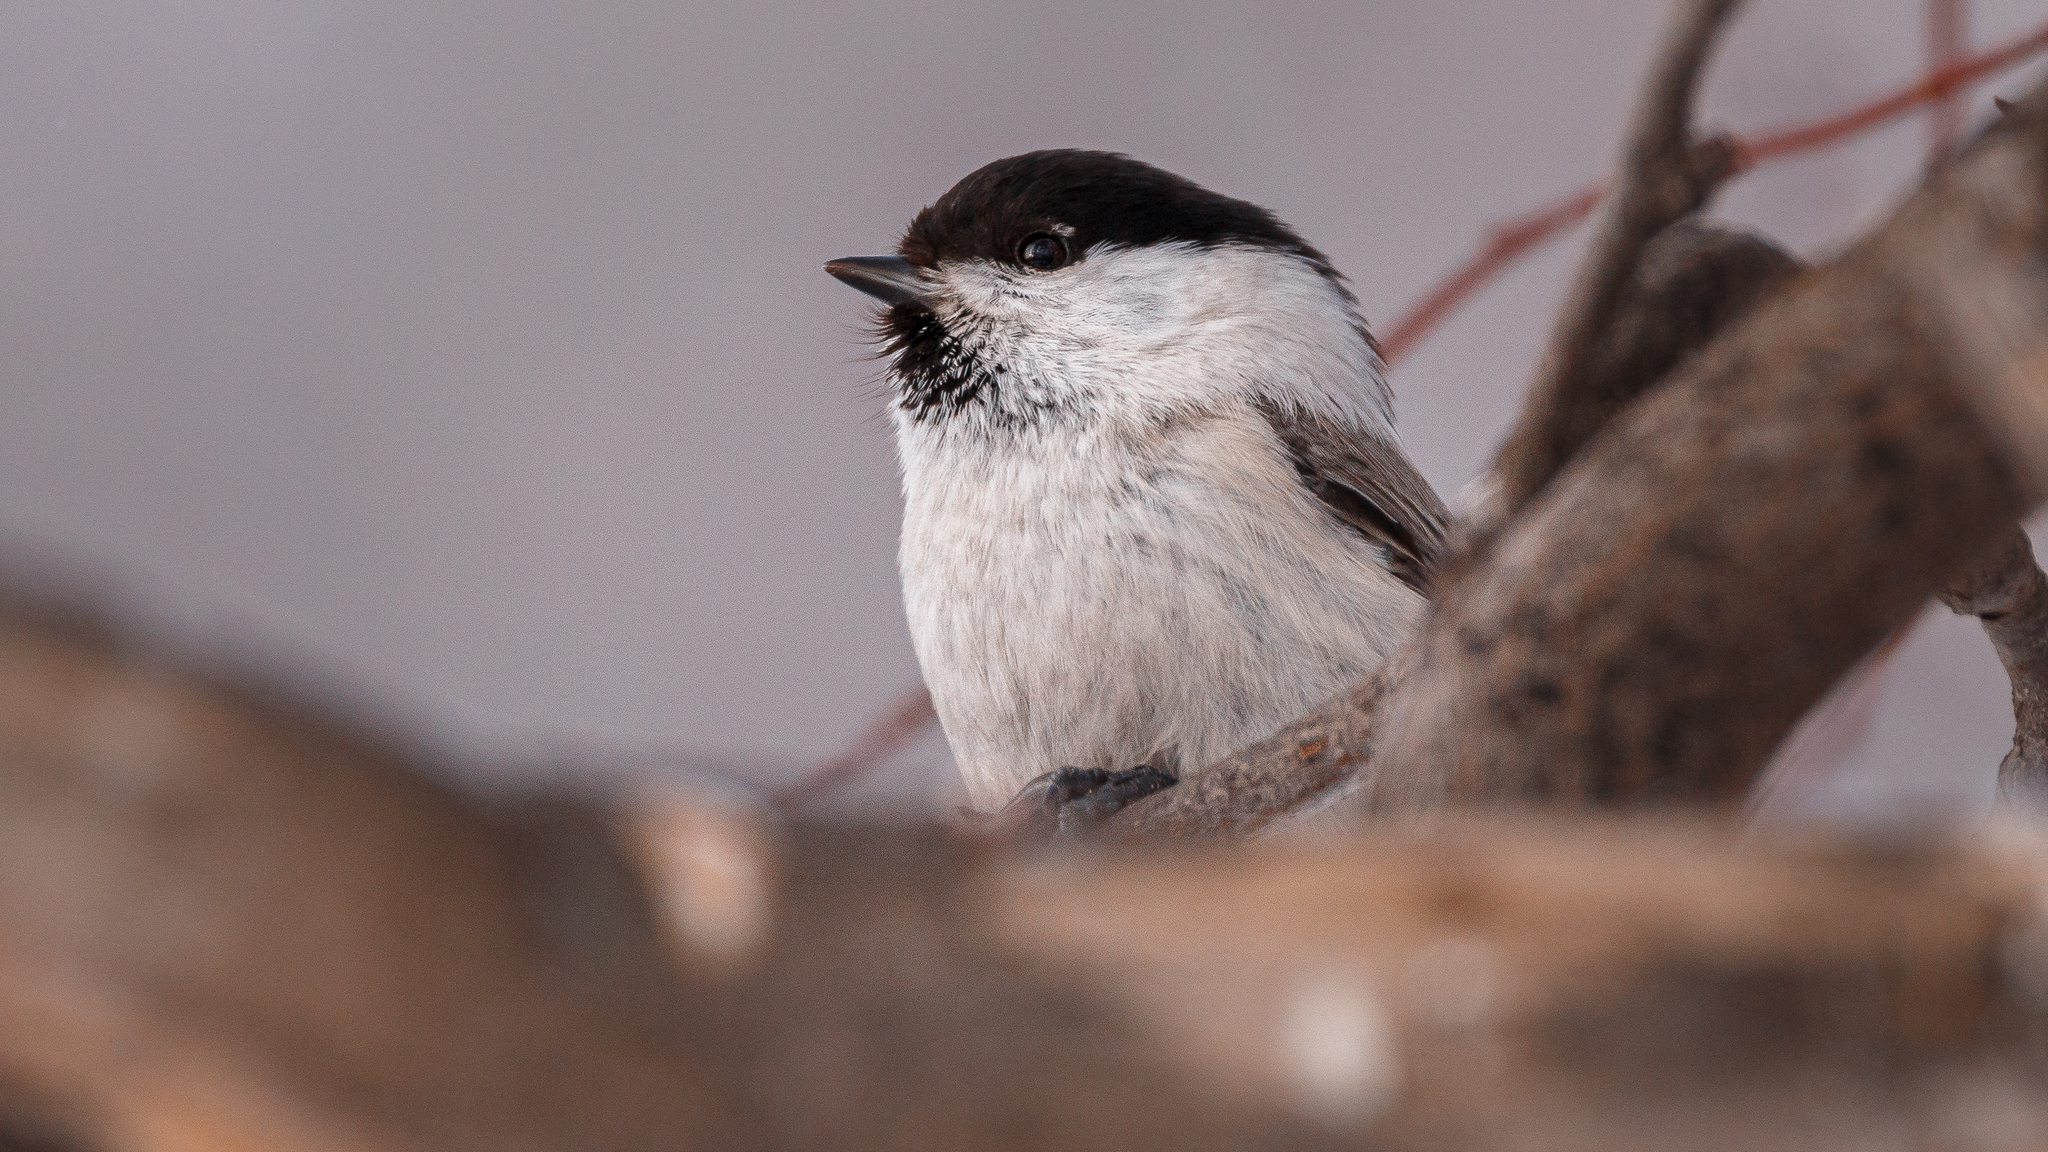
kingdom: Animalia
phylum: Chordata
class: Aves
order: Passeriformes
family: Paridae
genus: Poecile
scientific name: Poecile montanus
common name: Willow tit
